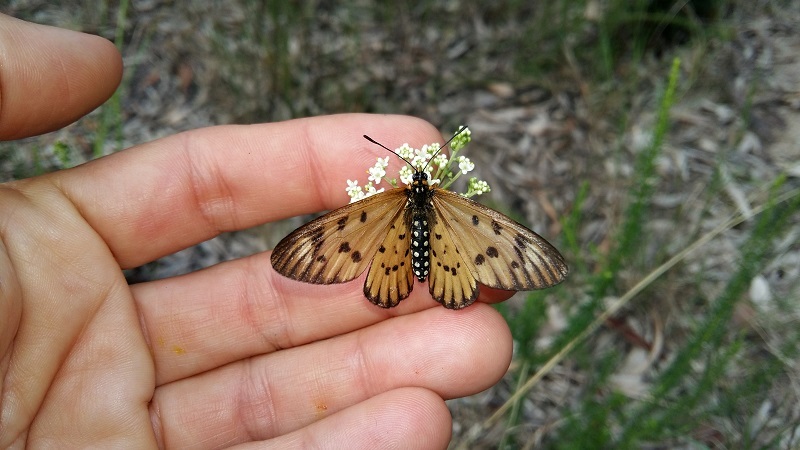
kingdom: Animalia
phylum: Arthropoda
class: Insecta
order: Lepidoptera
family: Nymphalidae
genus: Acraea
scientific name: Acraea rahira
